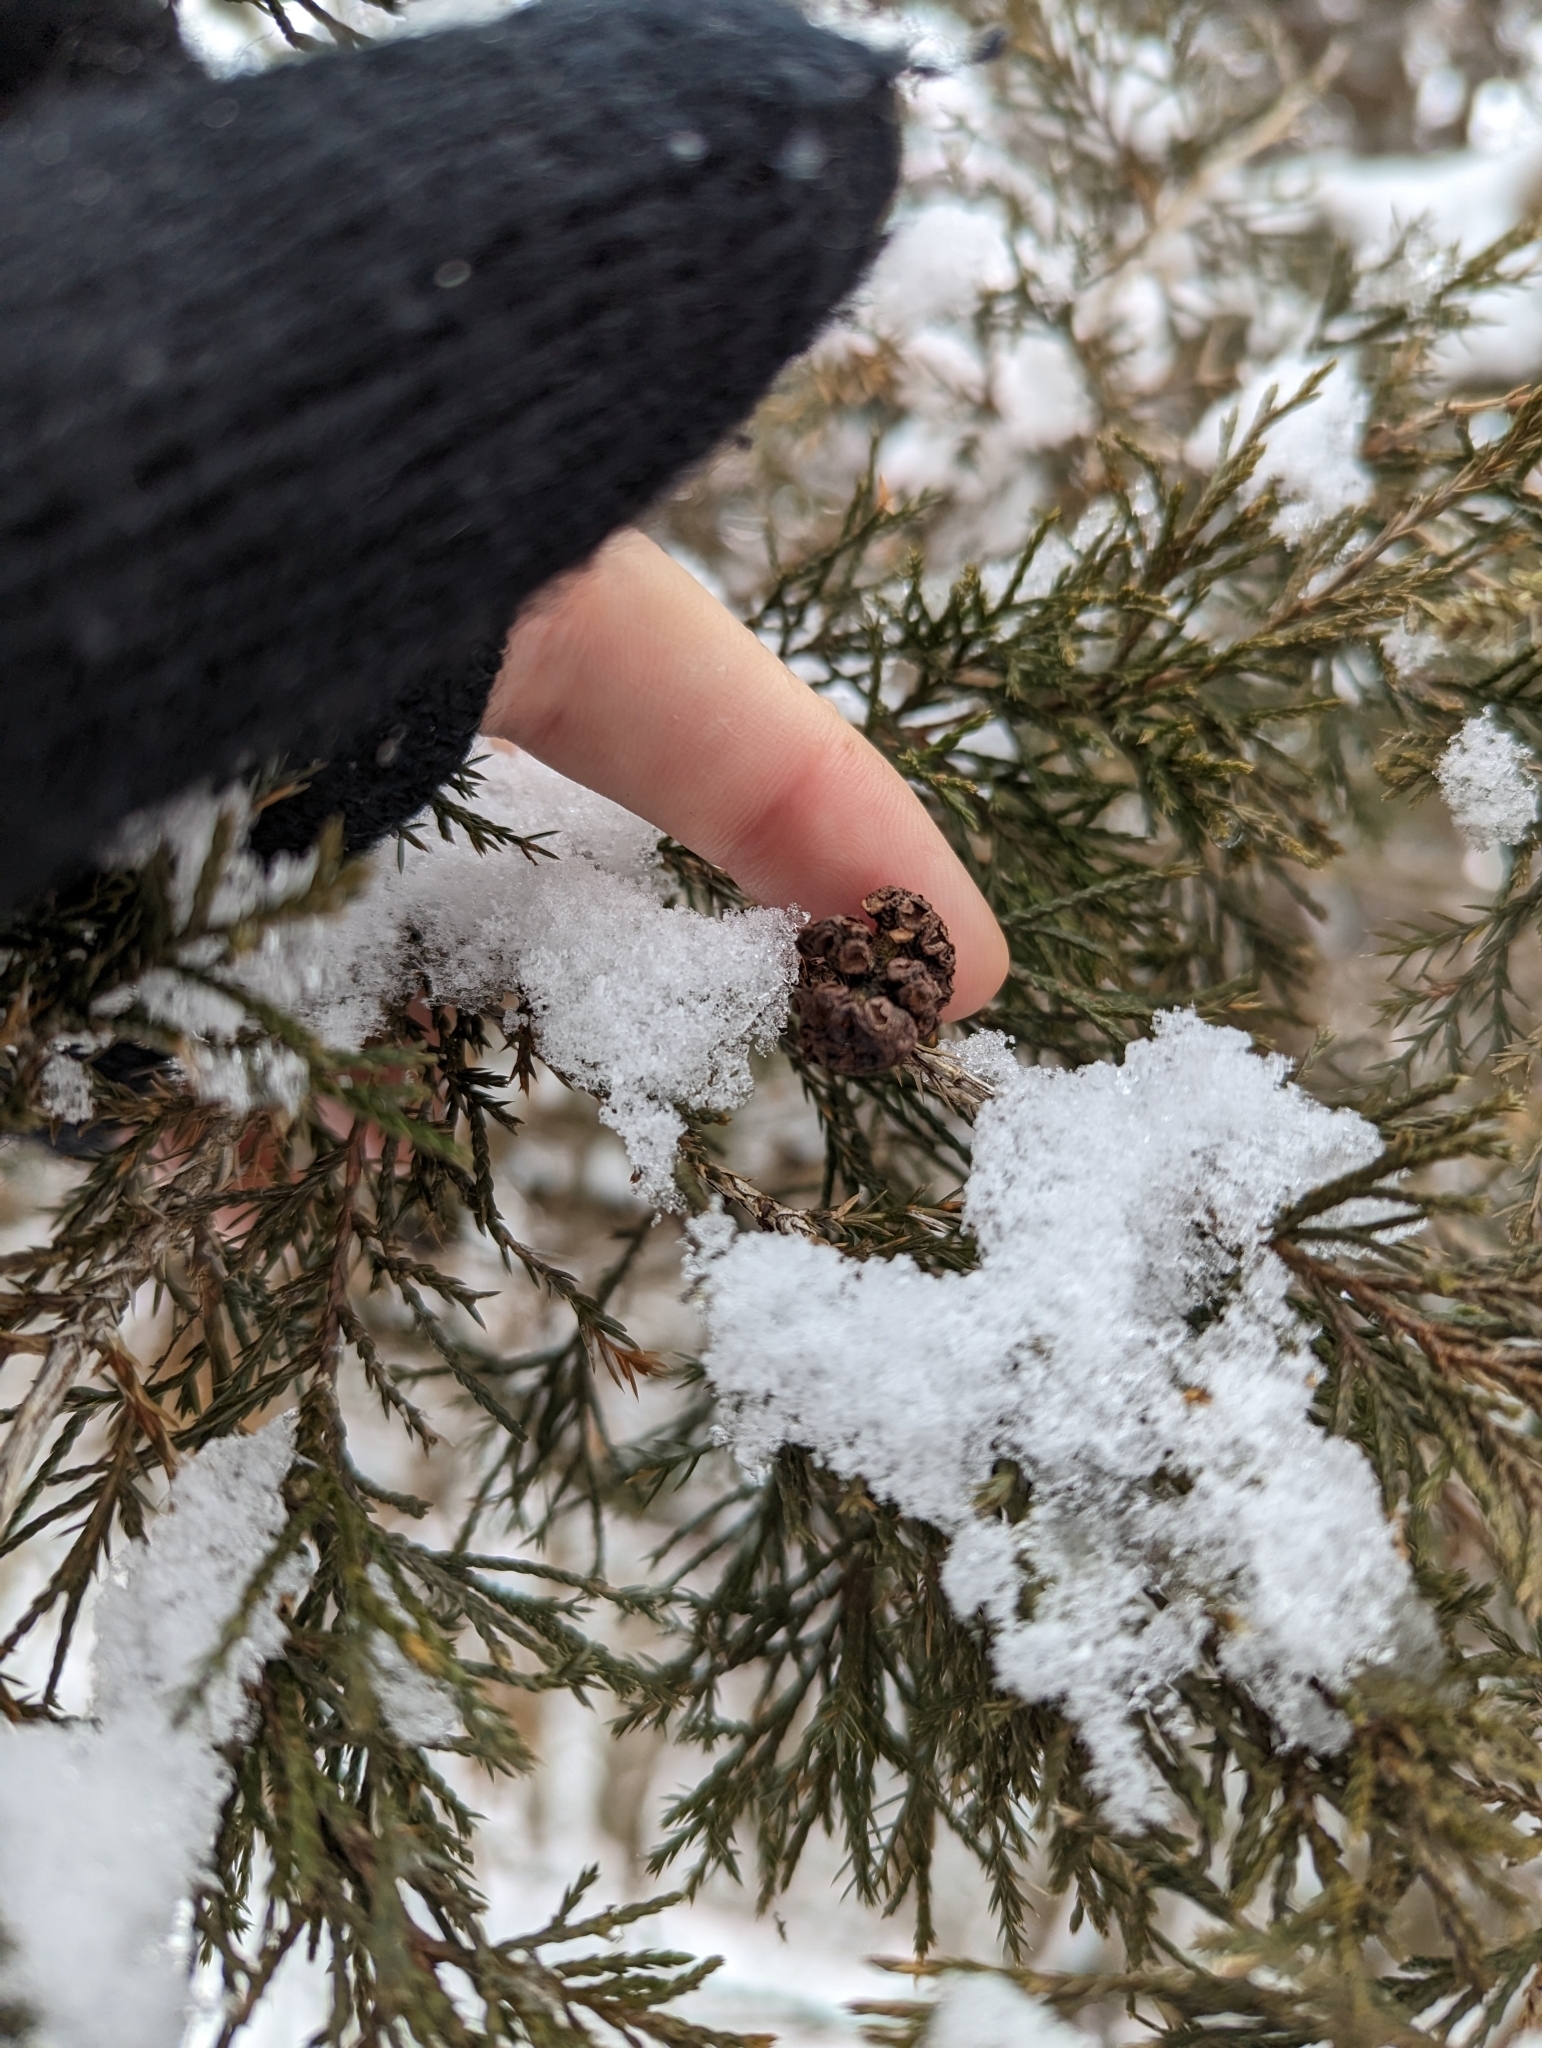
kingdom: Fungi
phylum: Basidiomycota
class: Pucciniomycetes
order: Pucciniales
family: Gymnosporangiaceae
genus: Gymnosporangium
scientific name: Gymnosporangium juniperi-virginianae
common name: Juniper-apple rust
